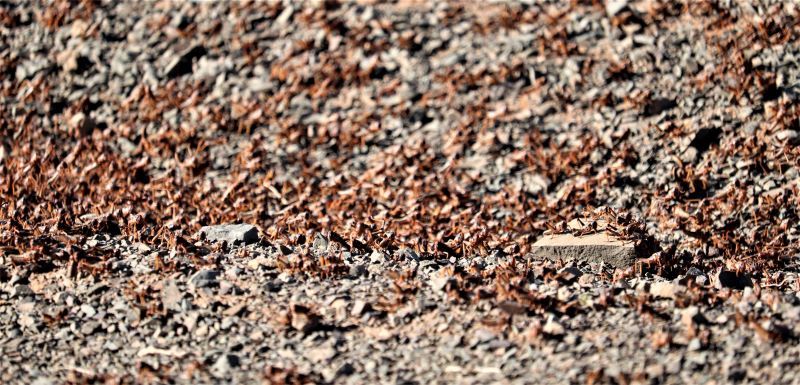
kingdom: Animalia
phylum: Arthropoda
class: Insecta
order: Orthoptera
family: Acrididae
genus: Locustana
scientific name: Locustana pardalina
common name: Brown locust
